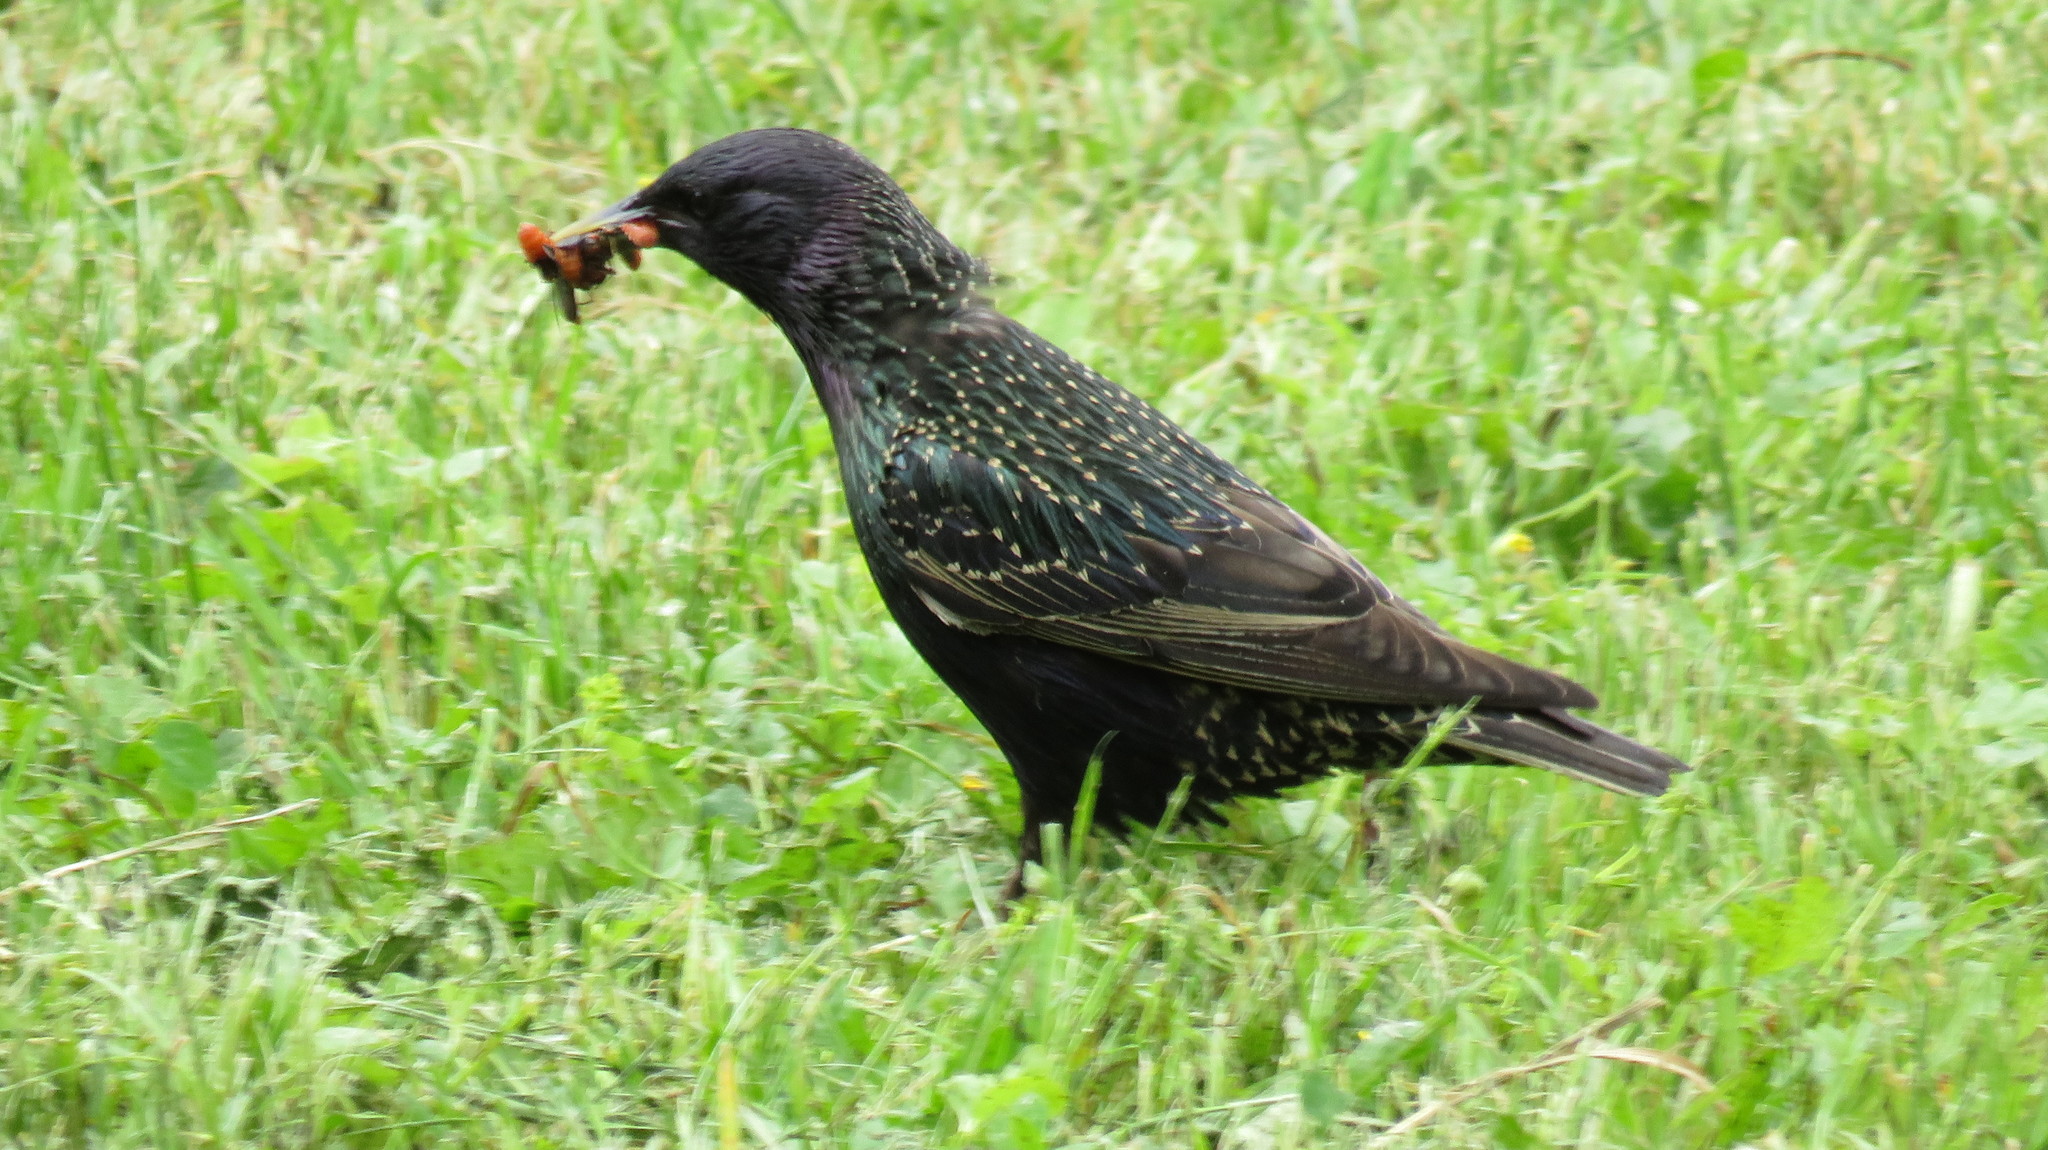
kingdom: Animalia
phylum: Chordata
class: Aves
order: Passeriformes
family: Sturnidae
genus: Sturnus
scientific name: Sturnus vulgaris
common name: Common starling
